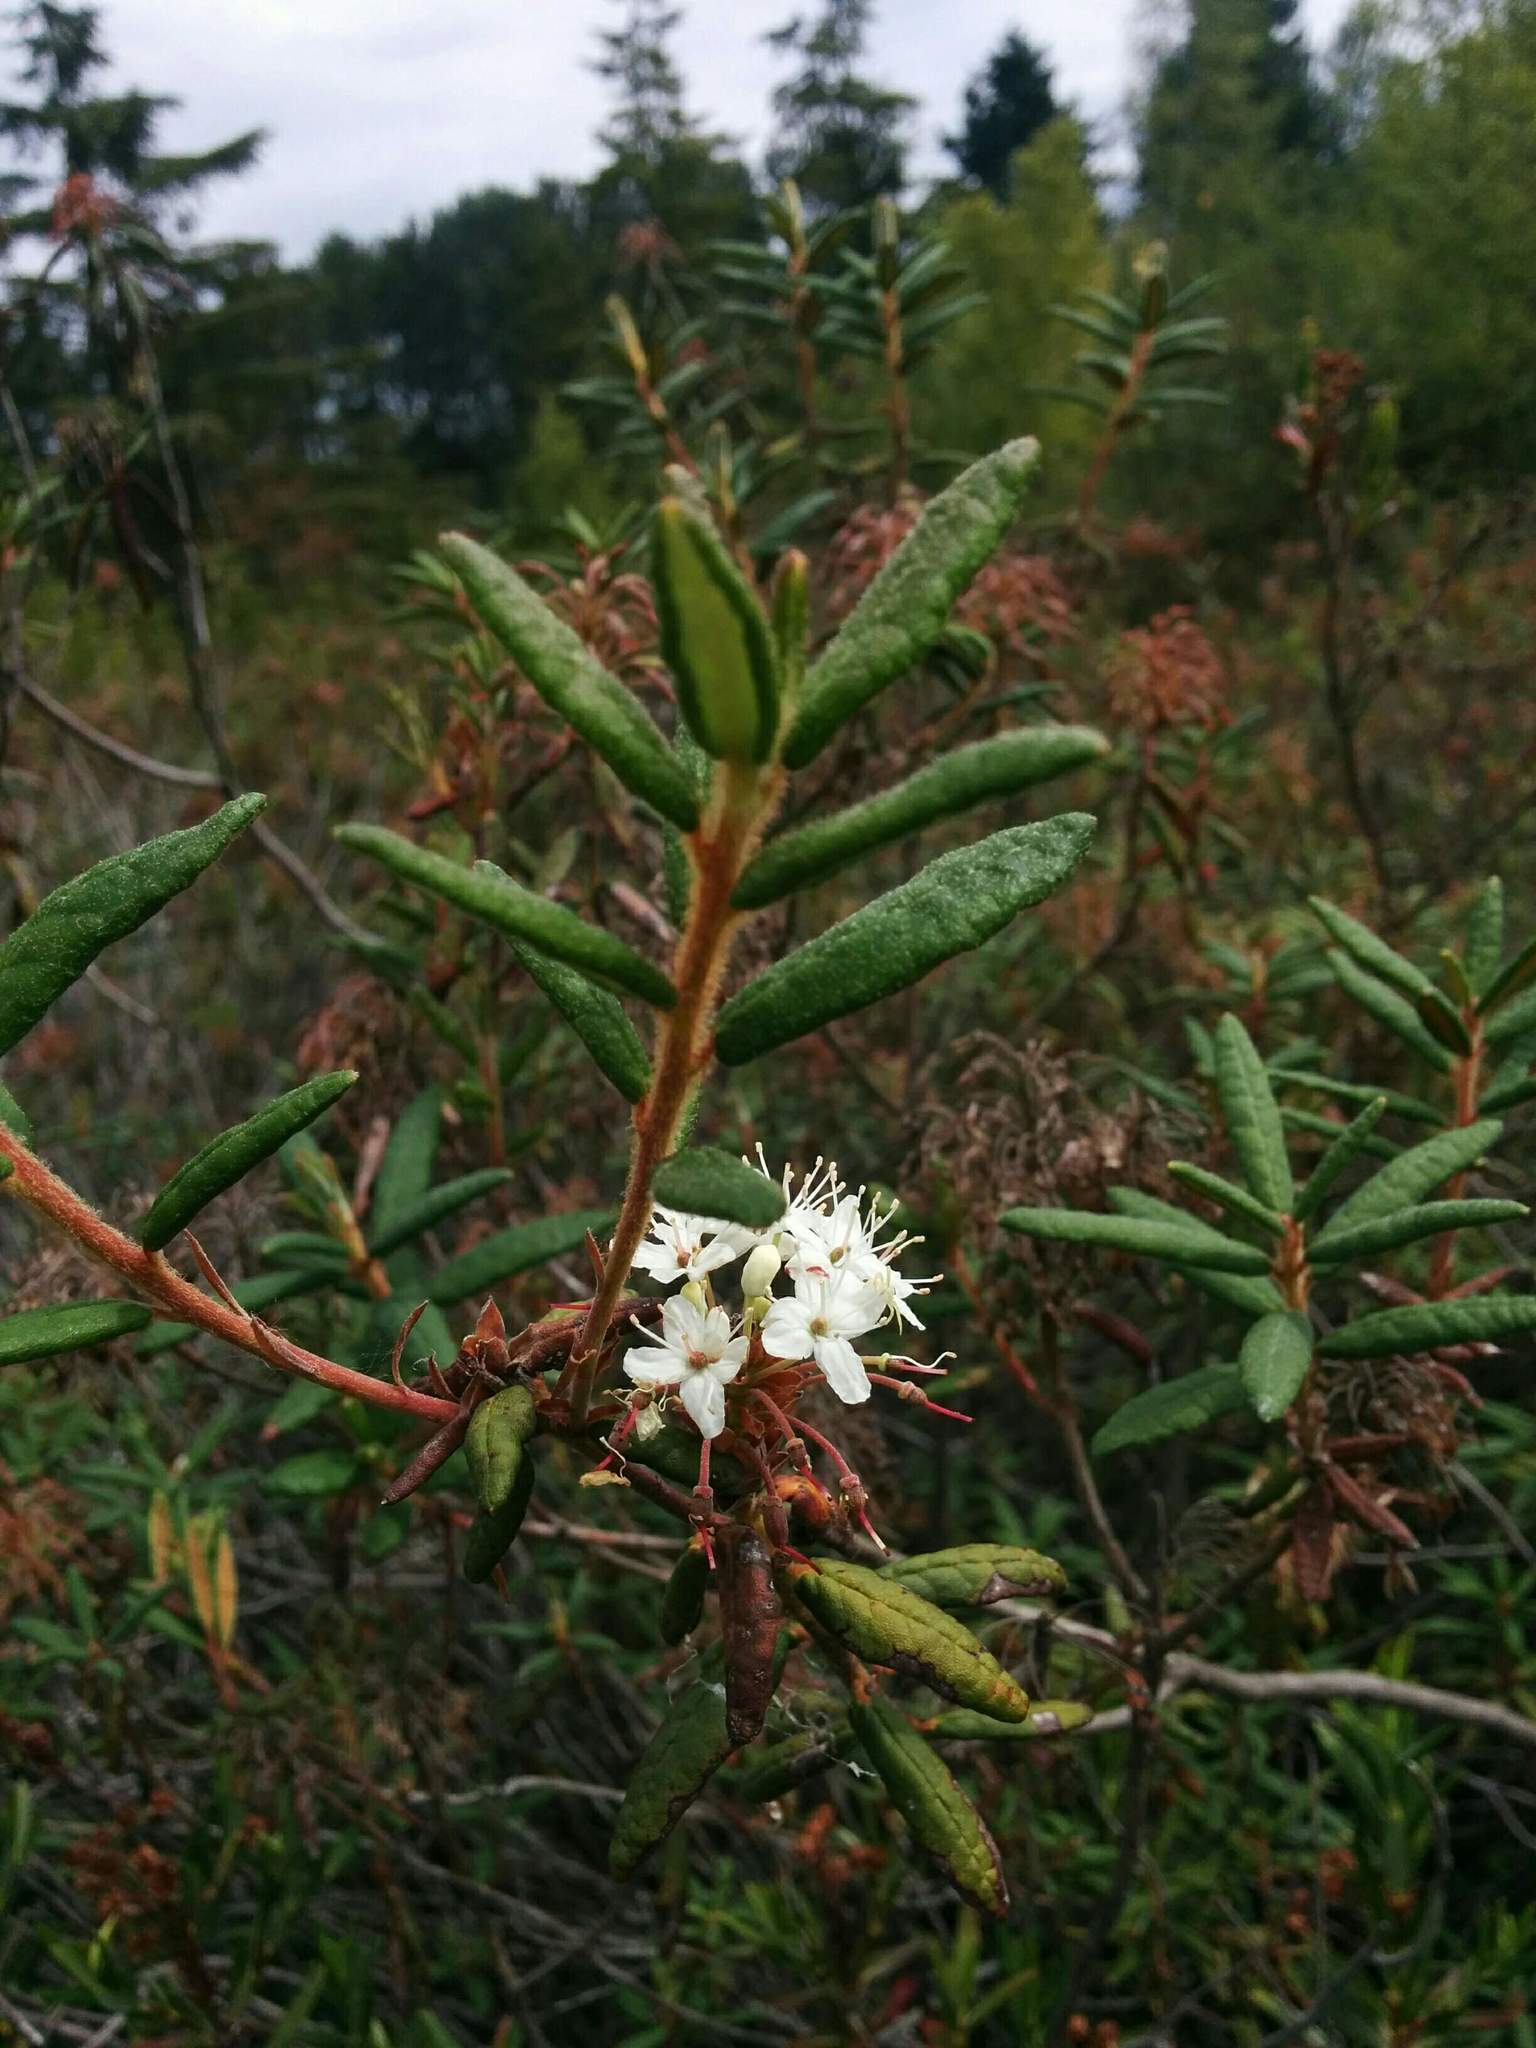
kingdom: Plantae
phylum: Tracheophyta
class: Magnoliopsida
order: Ericales
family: Ericaceae
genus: Rhododendron
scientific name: Rhododendron groenlandicum
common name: Bog labrador tea
